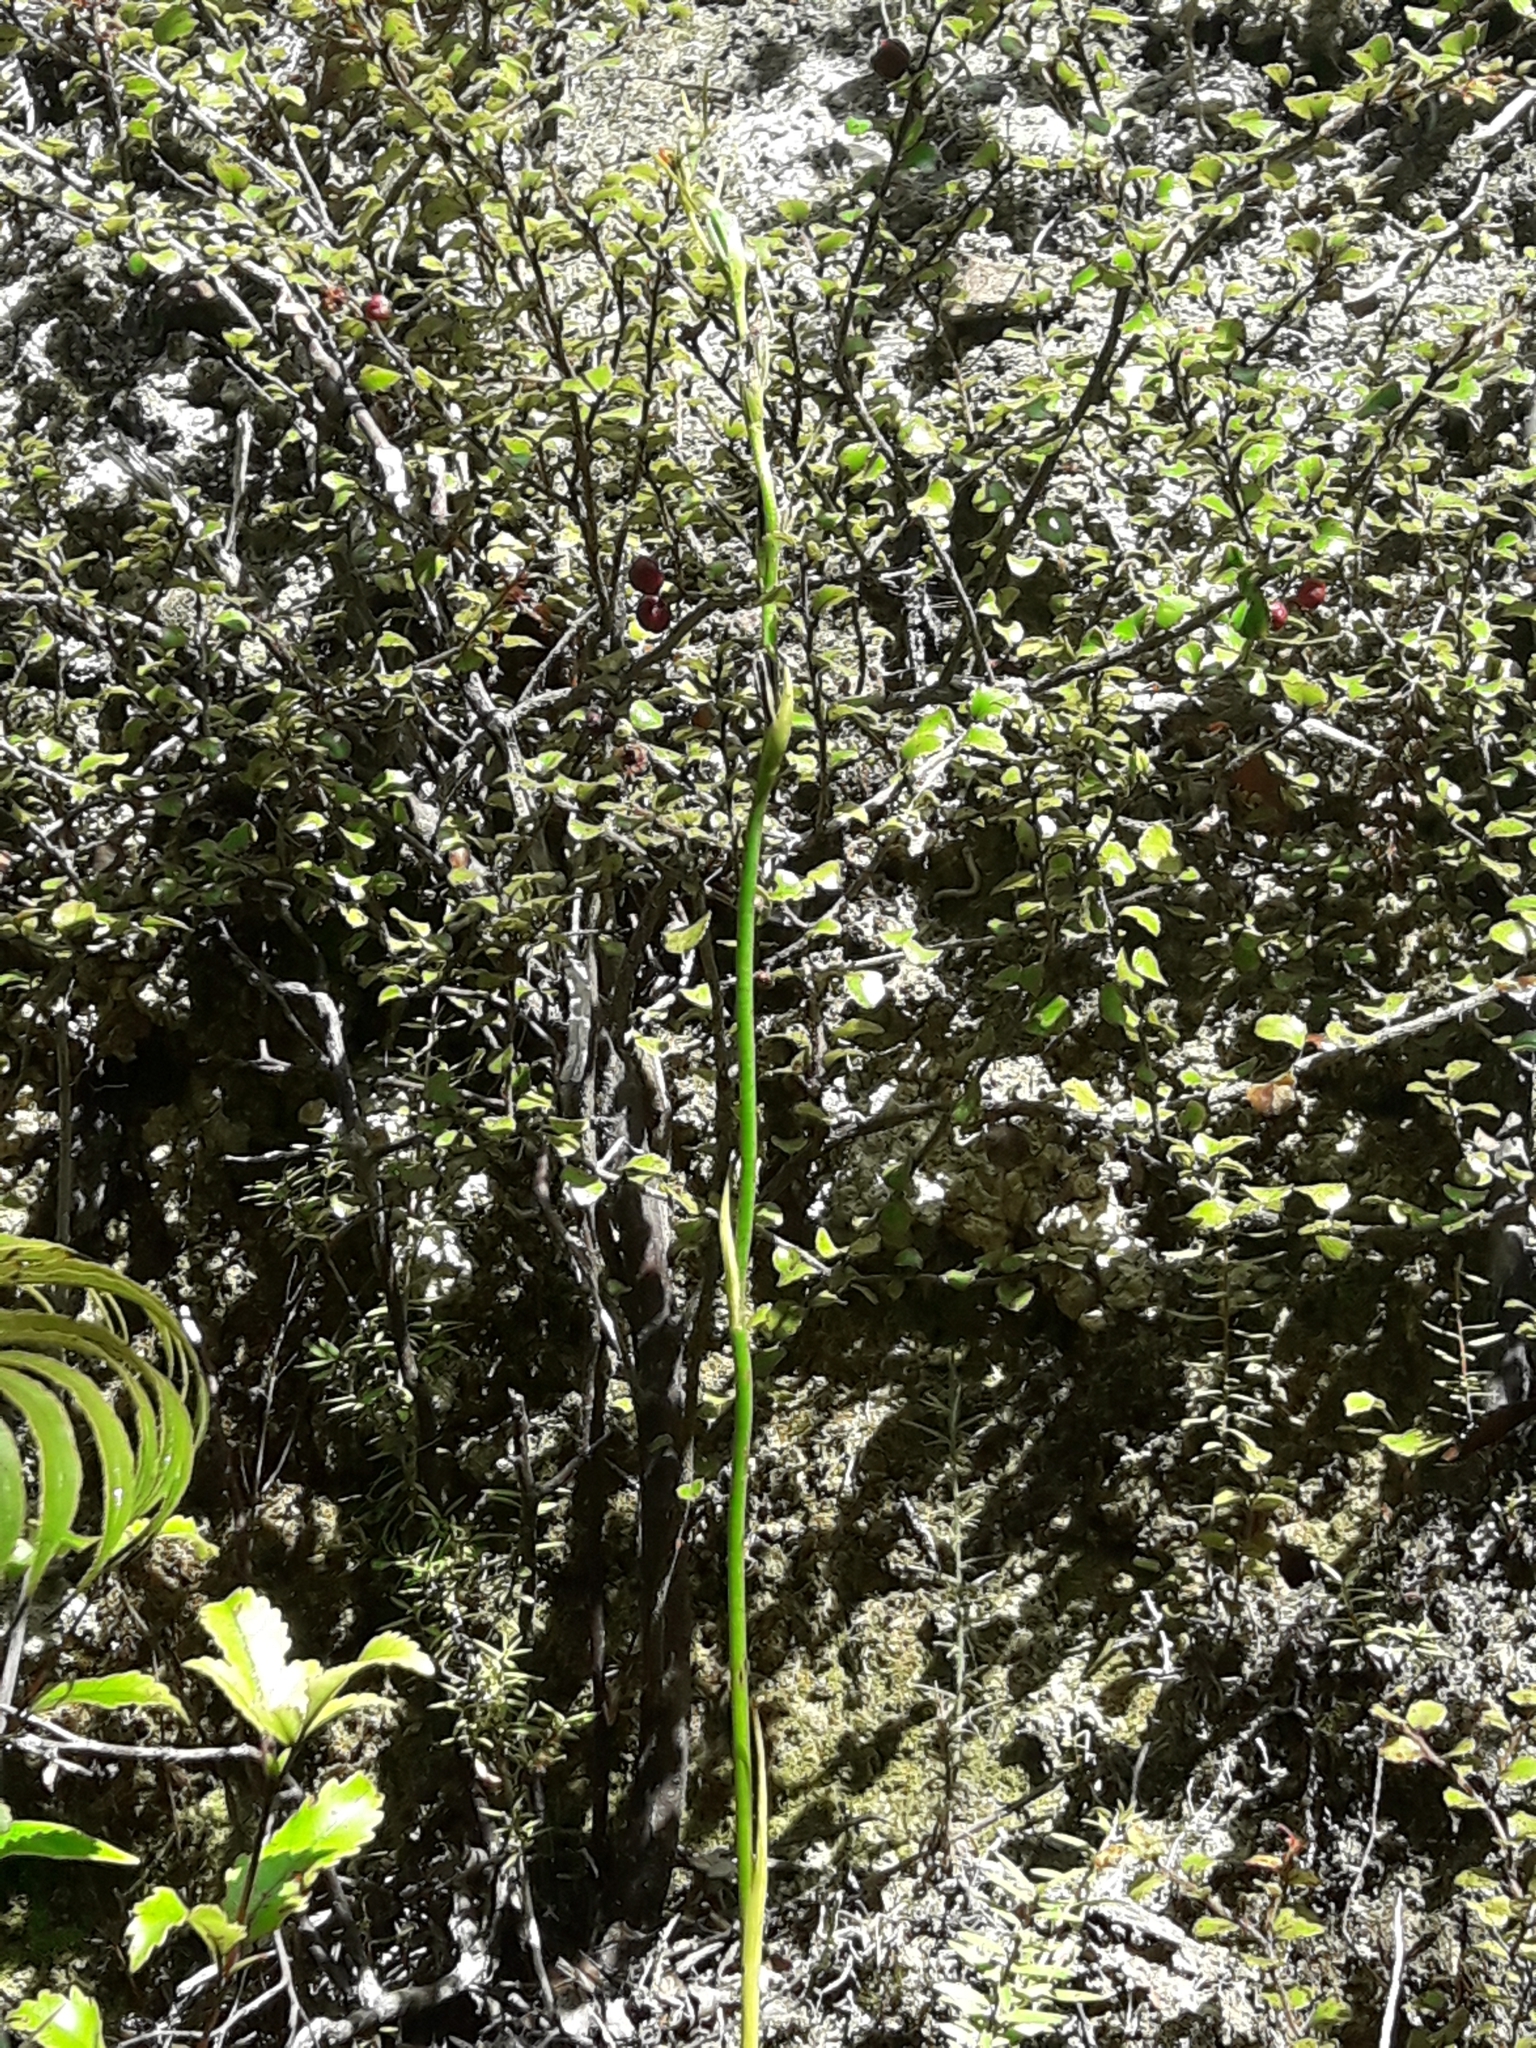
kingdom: Plantae
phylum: Tracheophyta
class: Liliopsida
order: Asparagales
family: Orchidaceae
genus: Orthoceras
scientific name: Orthoceras novae-zeelandiae
